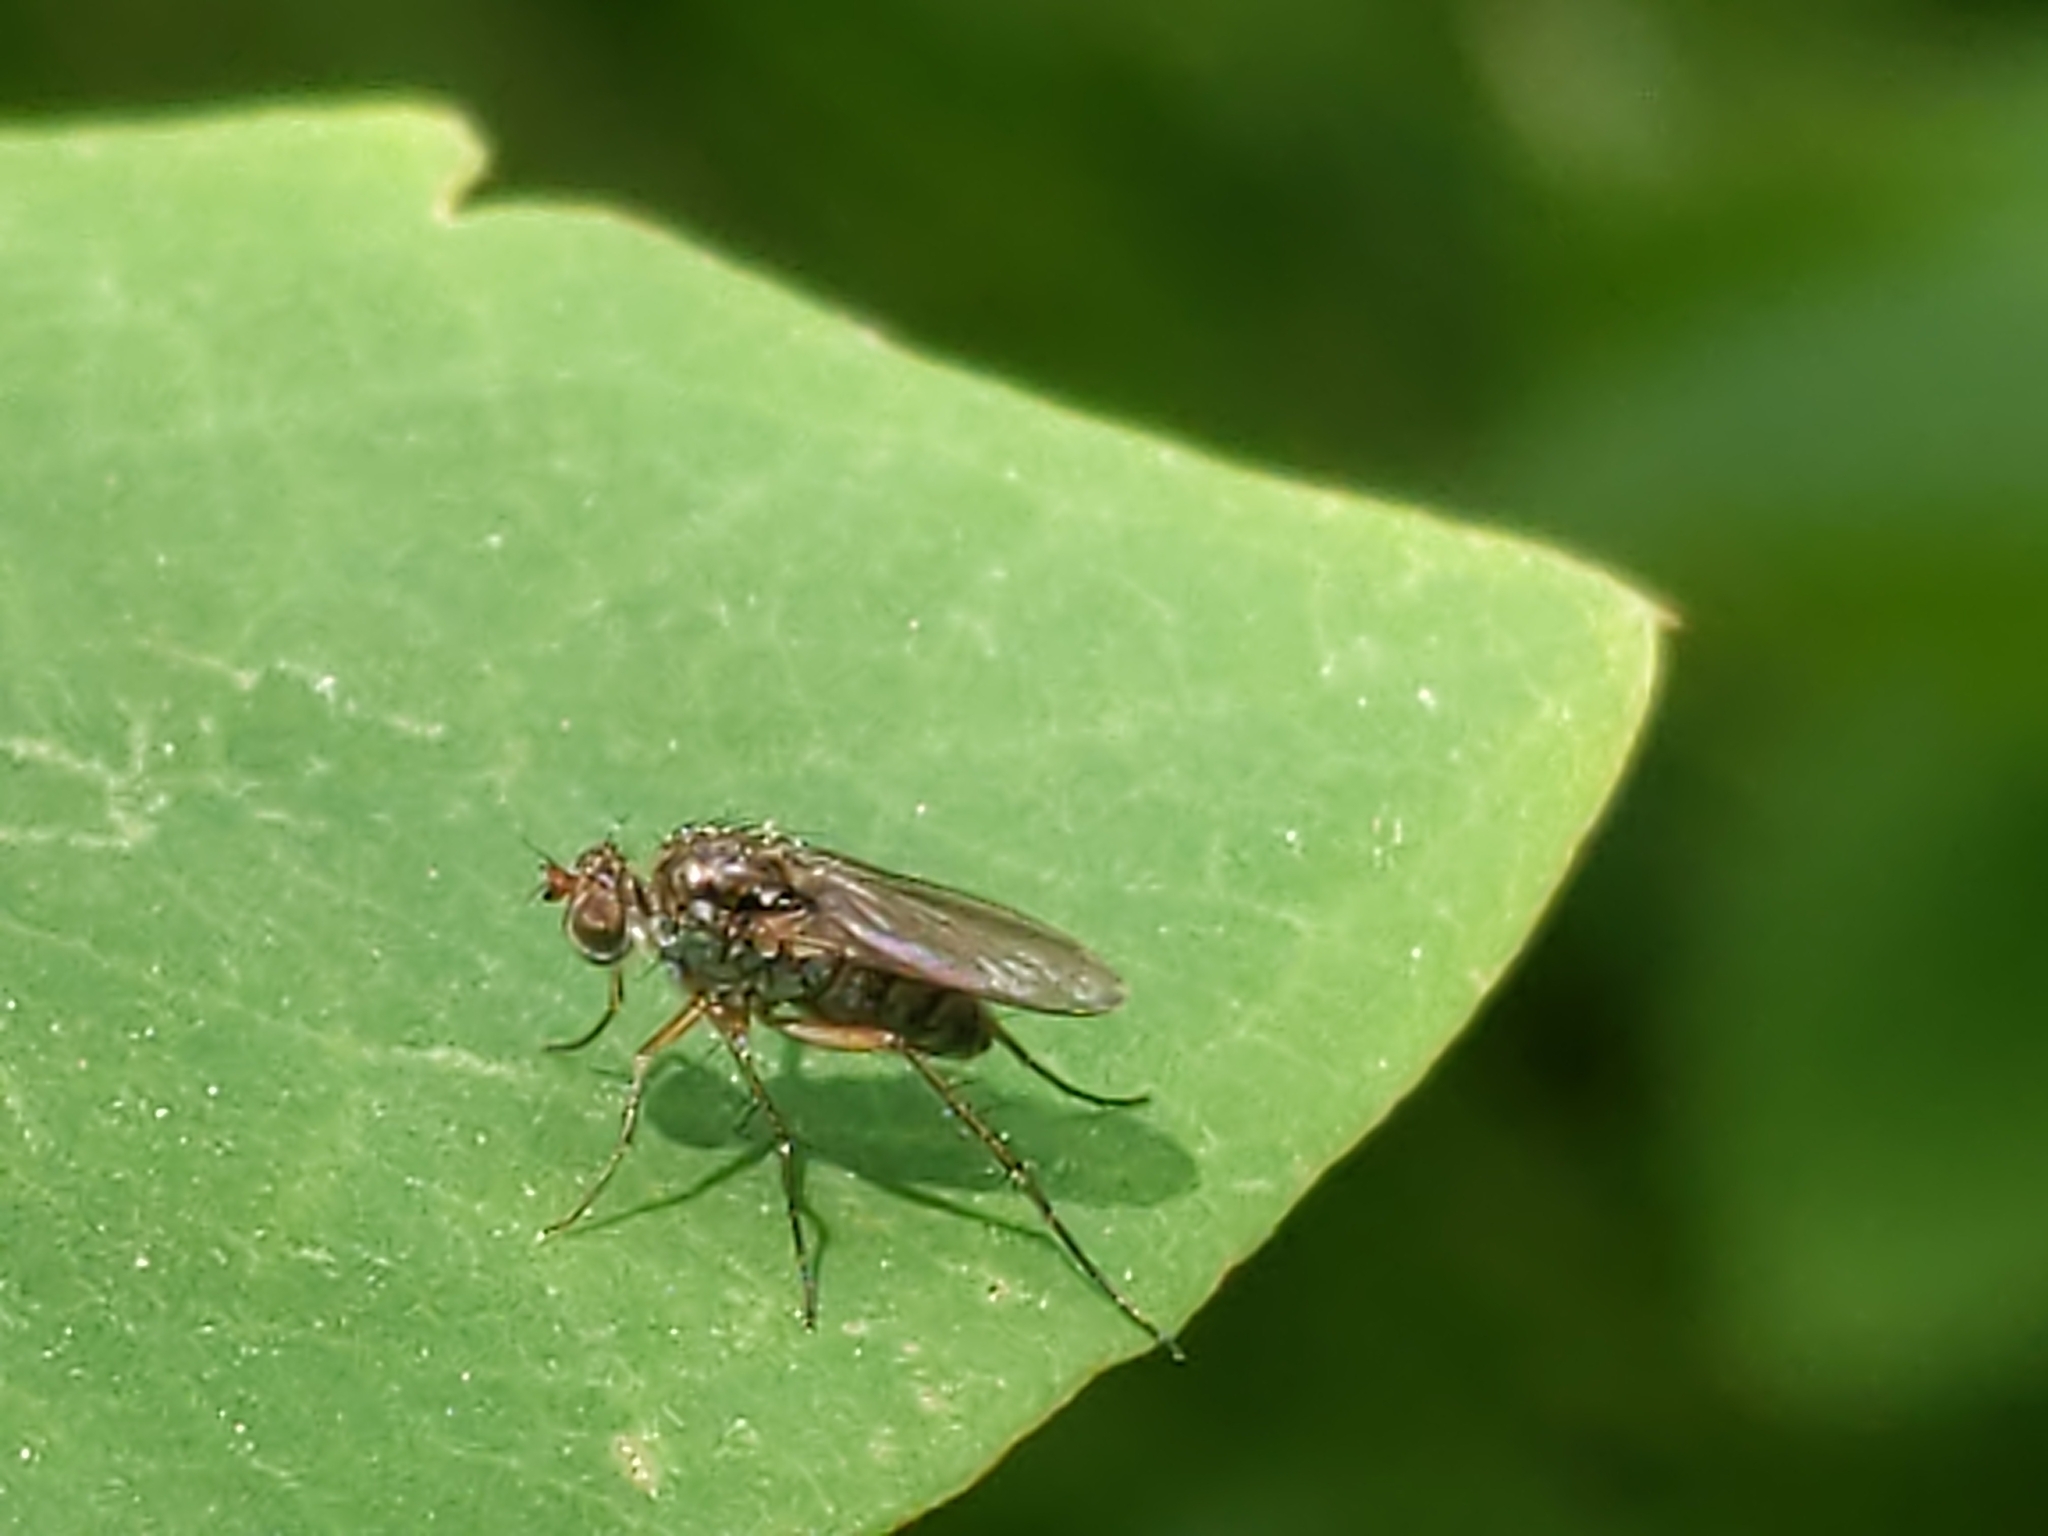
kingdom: Animalia
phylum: Arthropoda
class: Insecta
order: Diptera
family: Dolichopodidae
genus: Pelastoneurus
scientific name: Pelastoneurus
